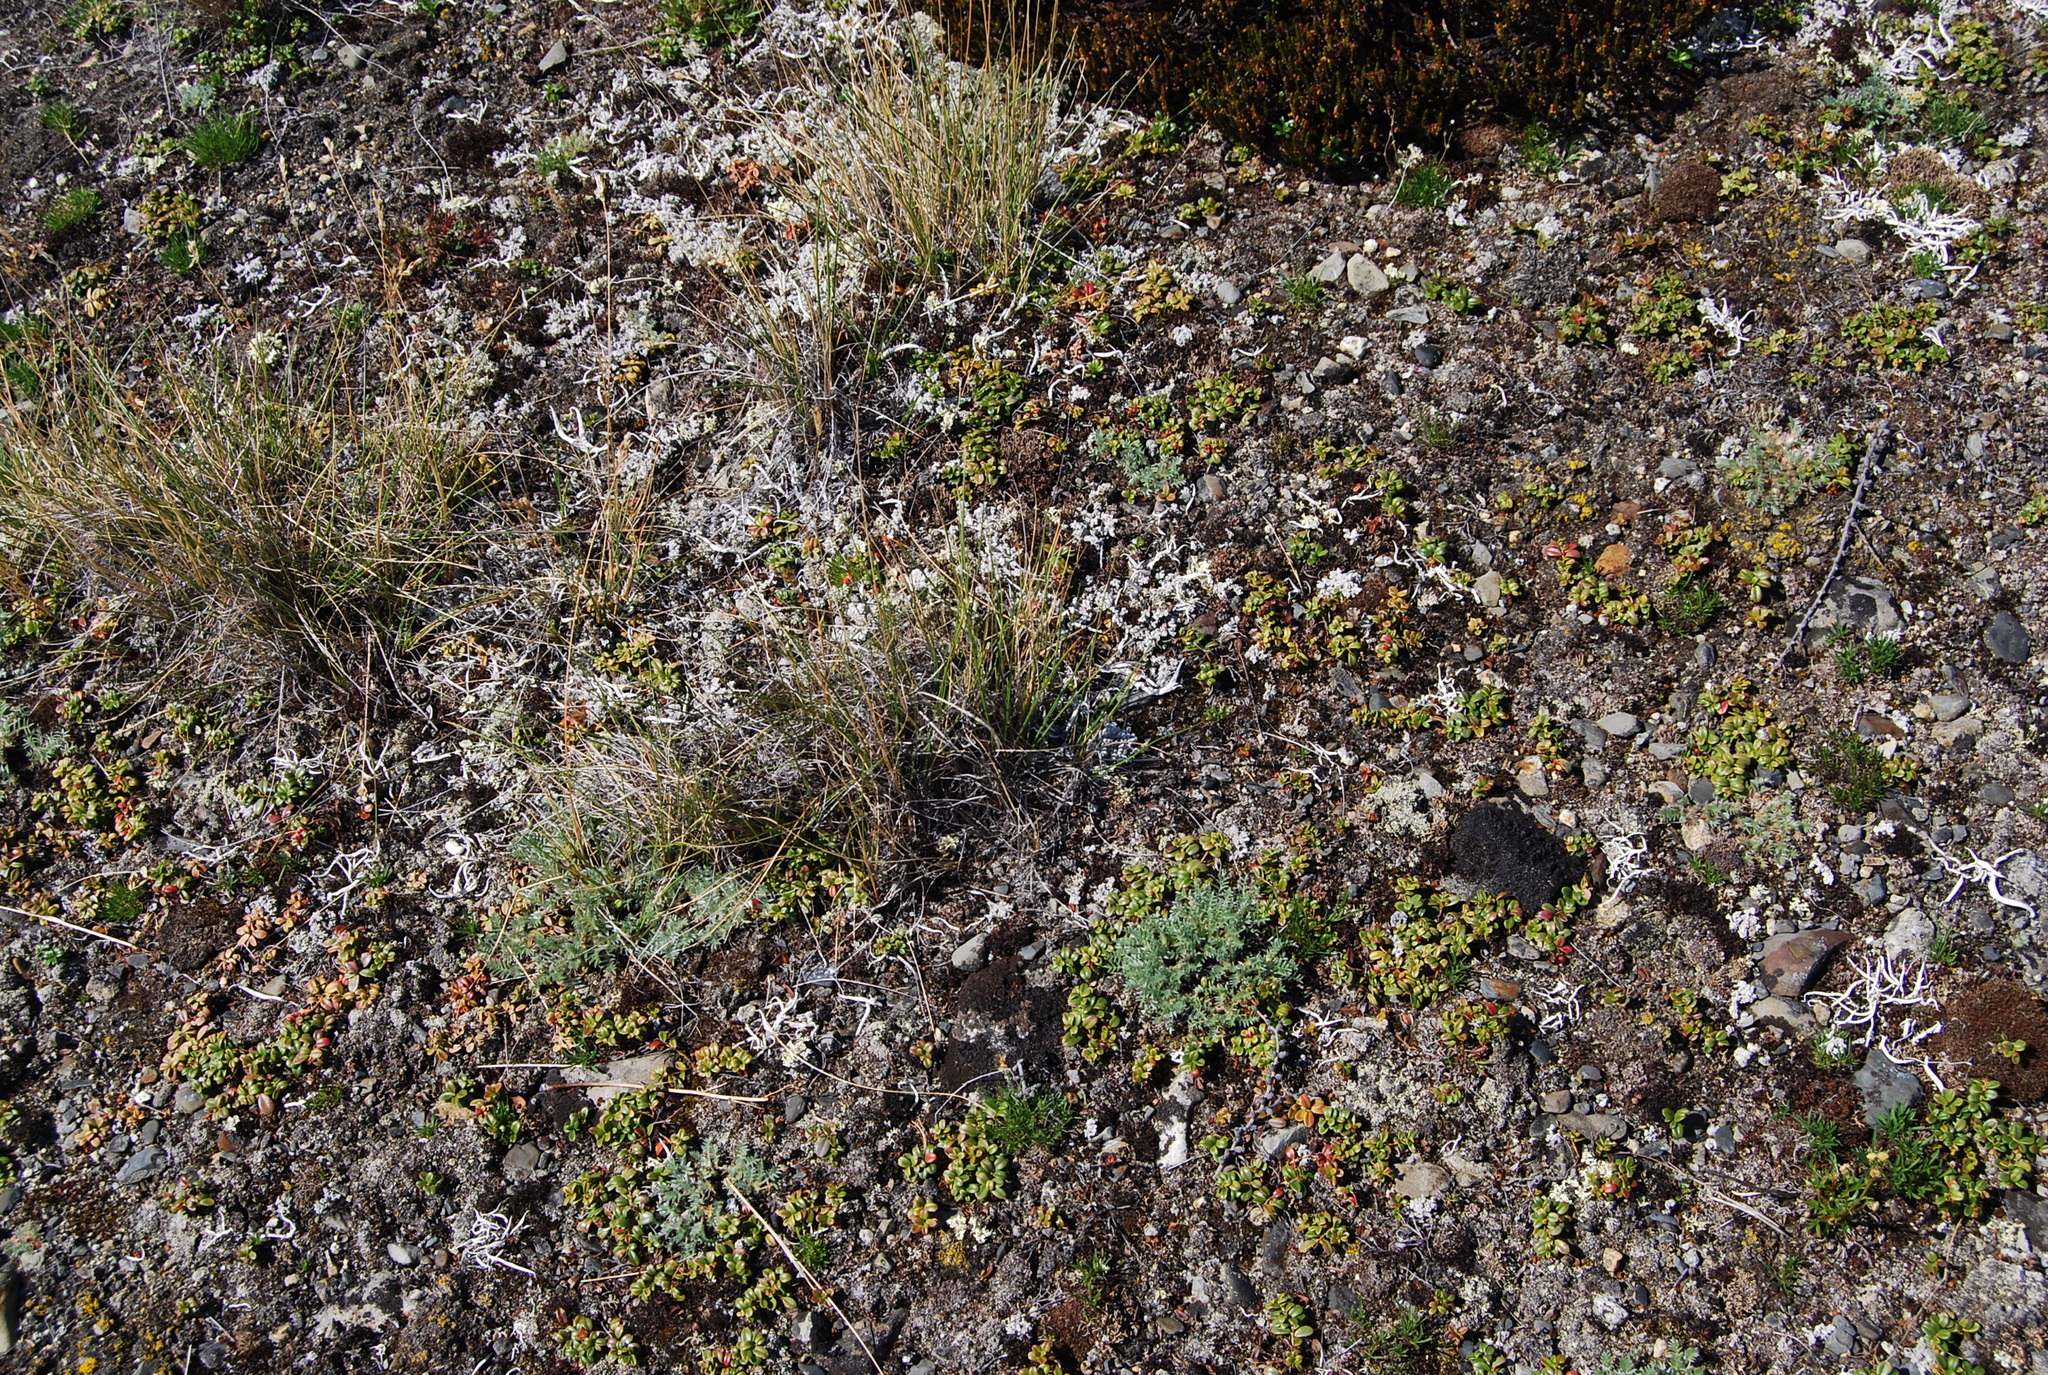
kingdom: Plantae
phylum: Tracheophyta
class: Magnoliopsida
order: Fabales
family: Fabaceae
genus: Oxytropis
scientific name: Oxytropis susumanica
